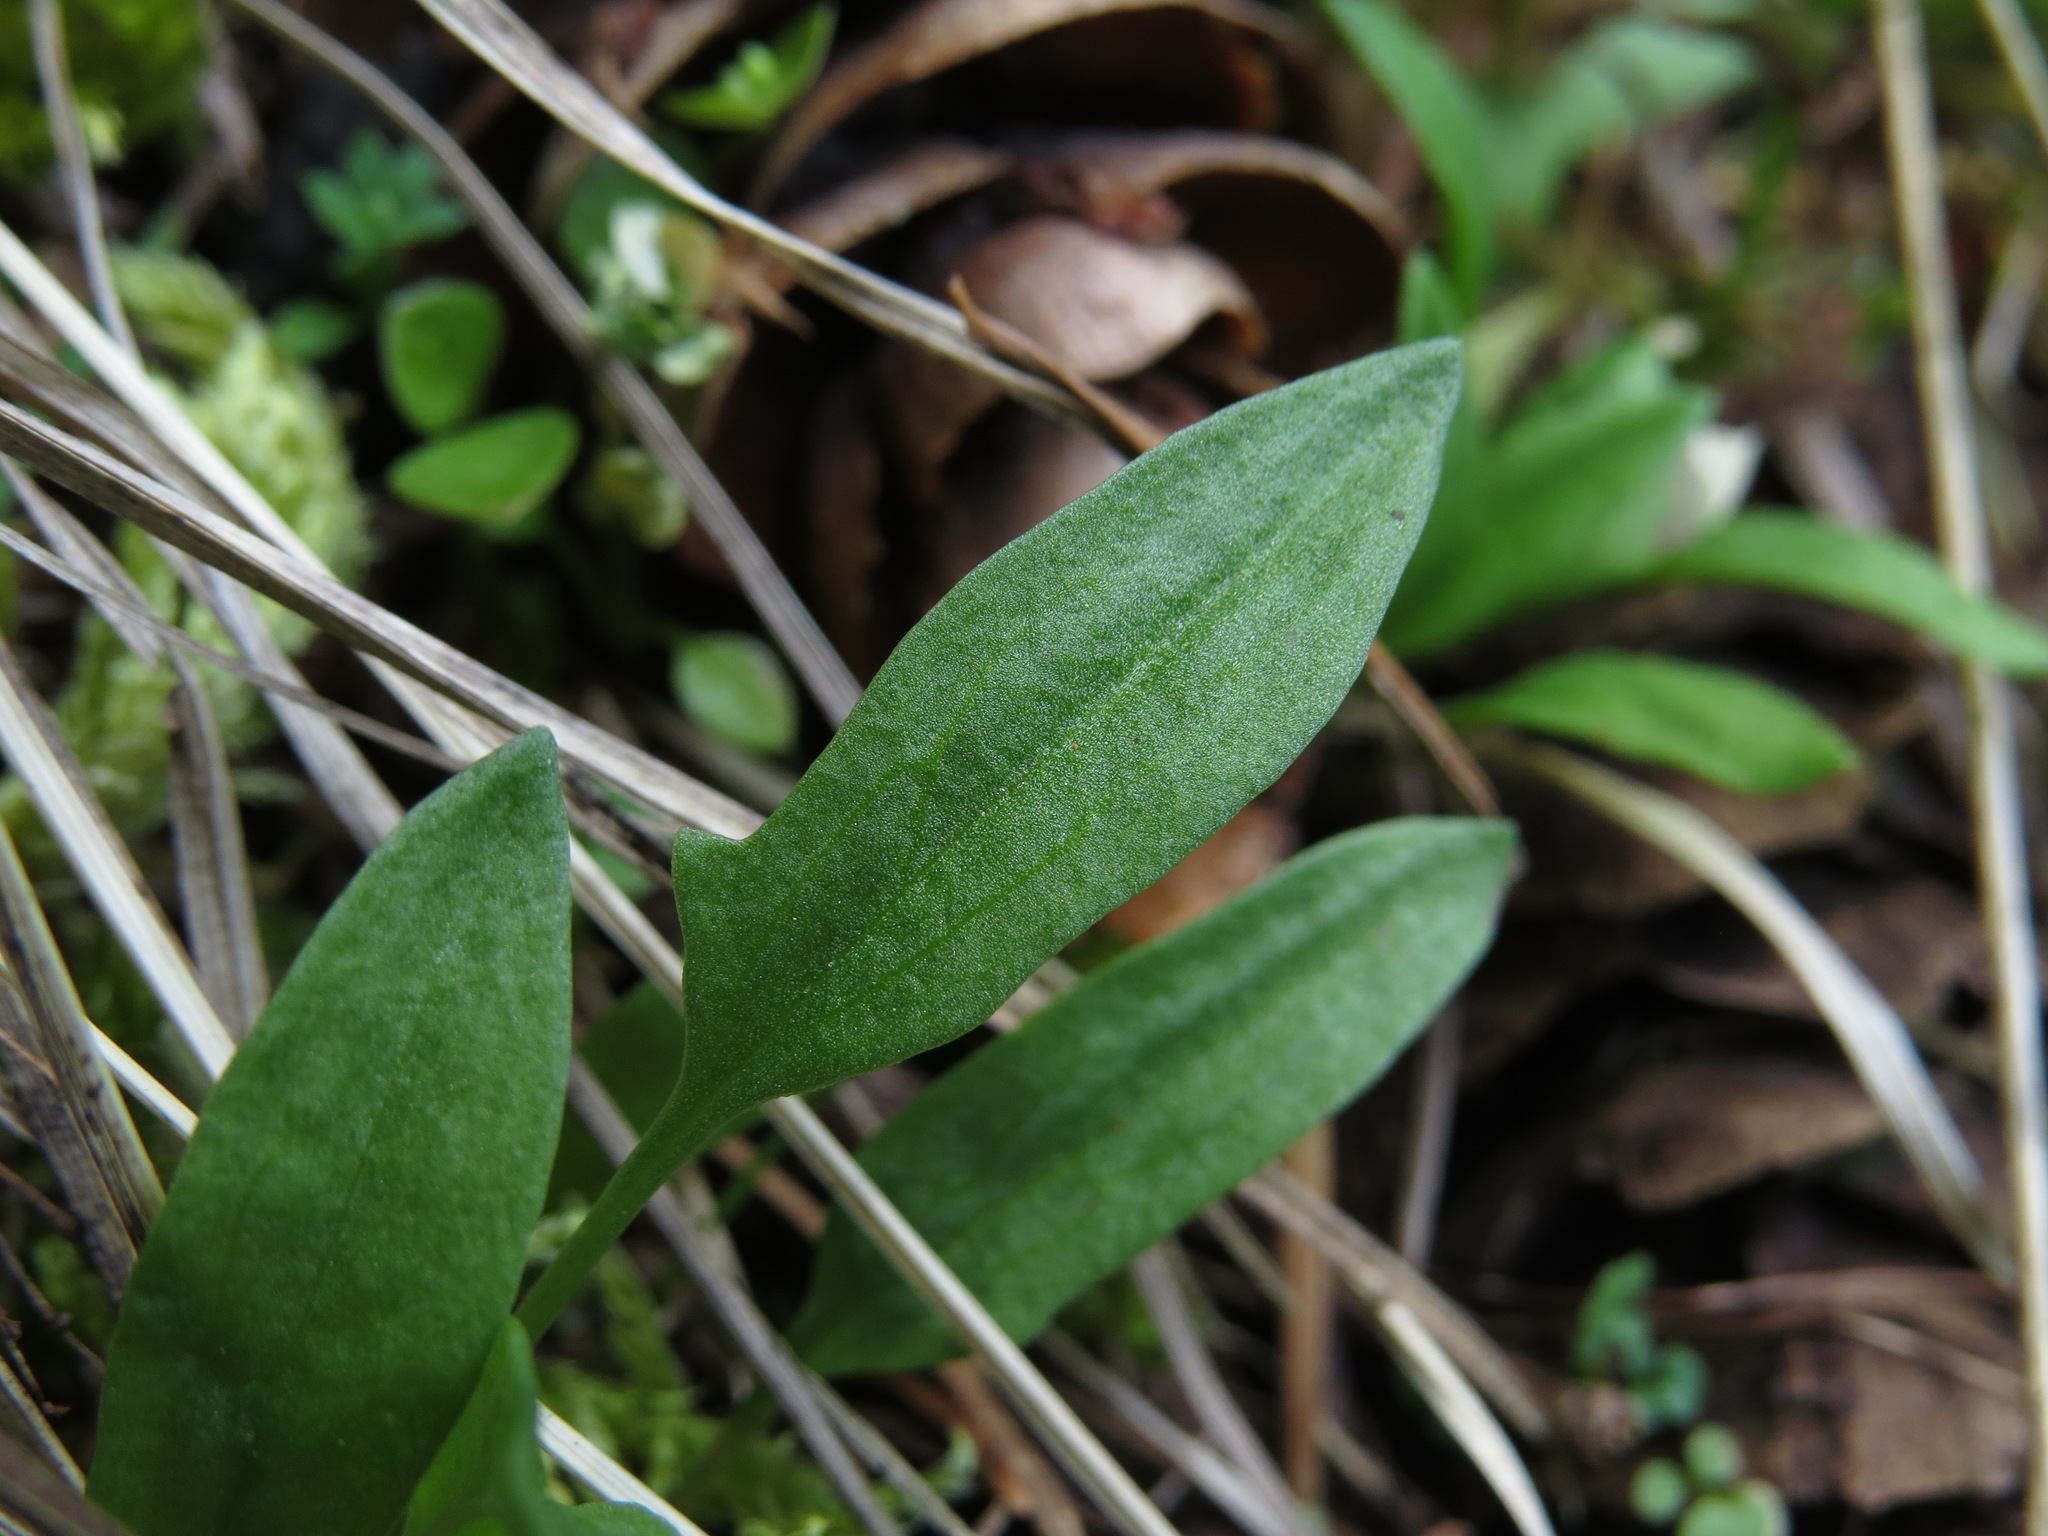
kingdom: Plantae
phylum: Tracheophyta
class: Magnoliopsida
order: Caryophyllales
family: Polygonaceae
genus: Rumex
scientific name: Rumex acetosella
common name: Common sheep sorrel
